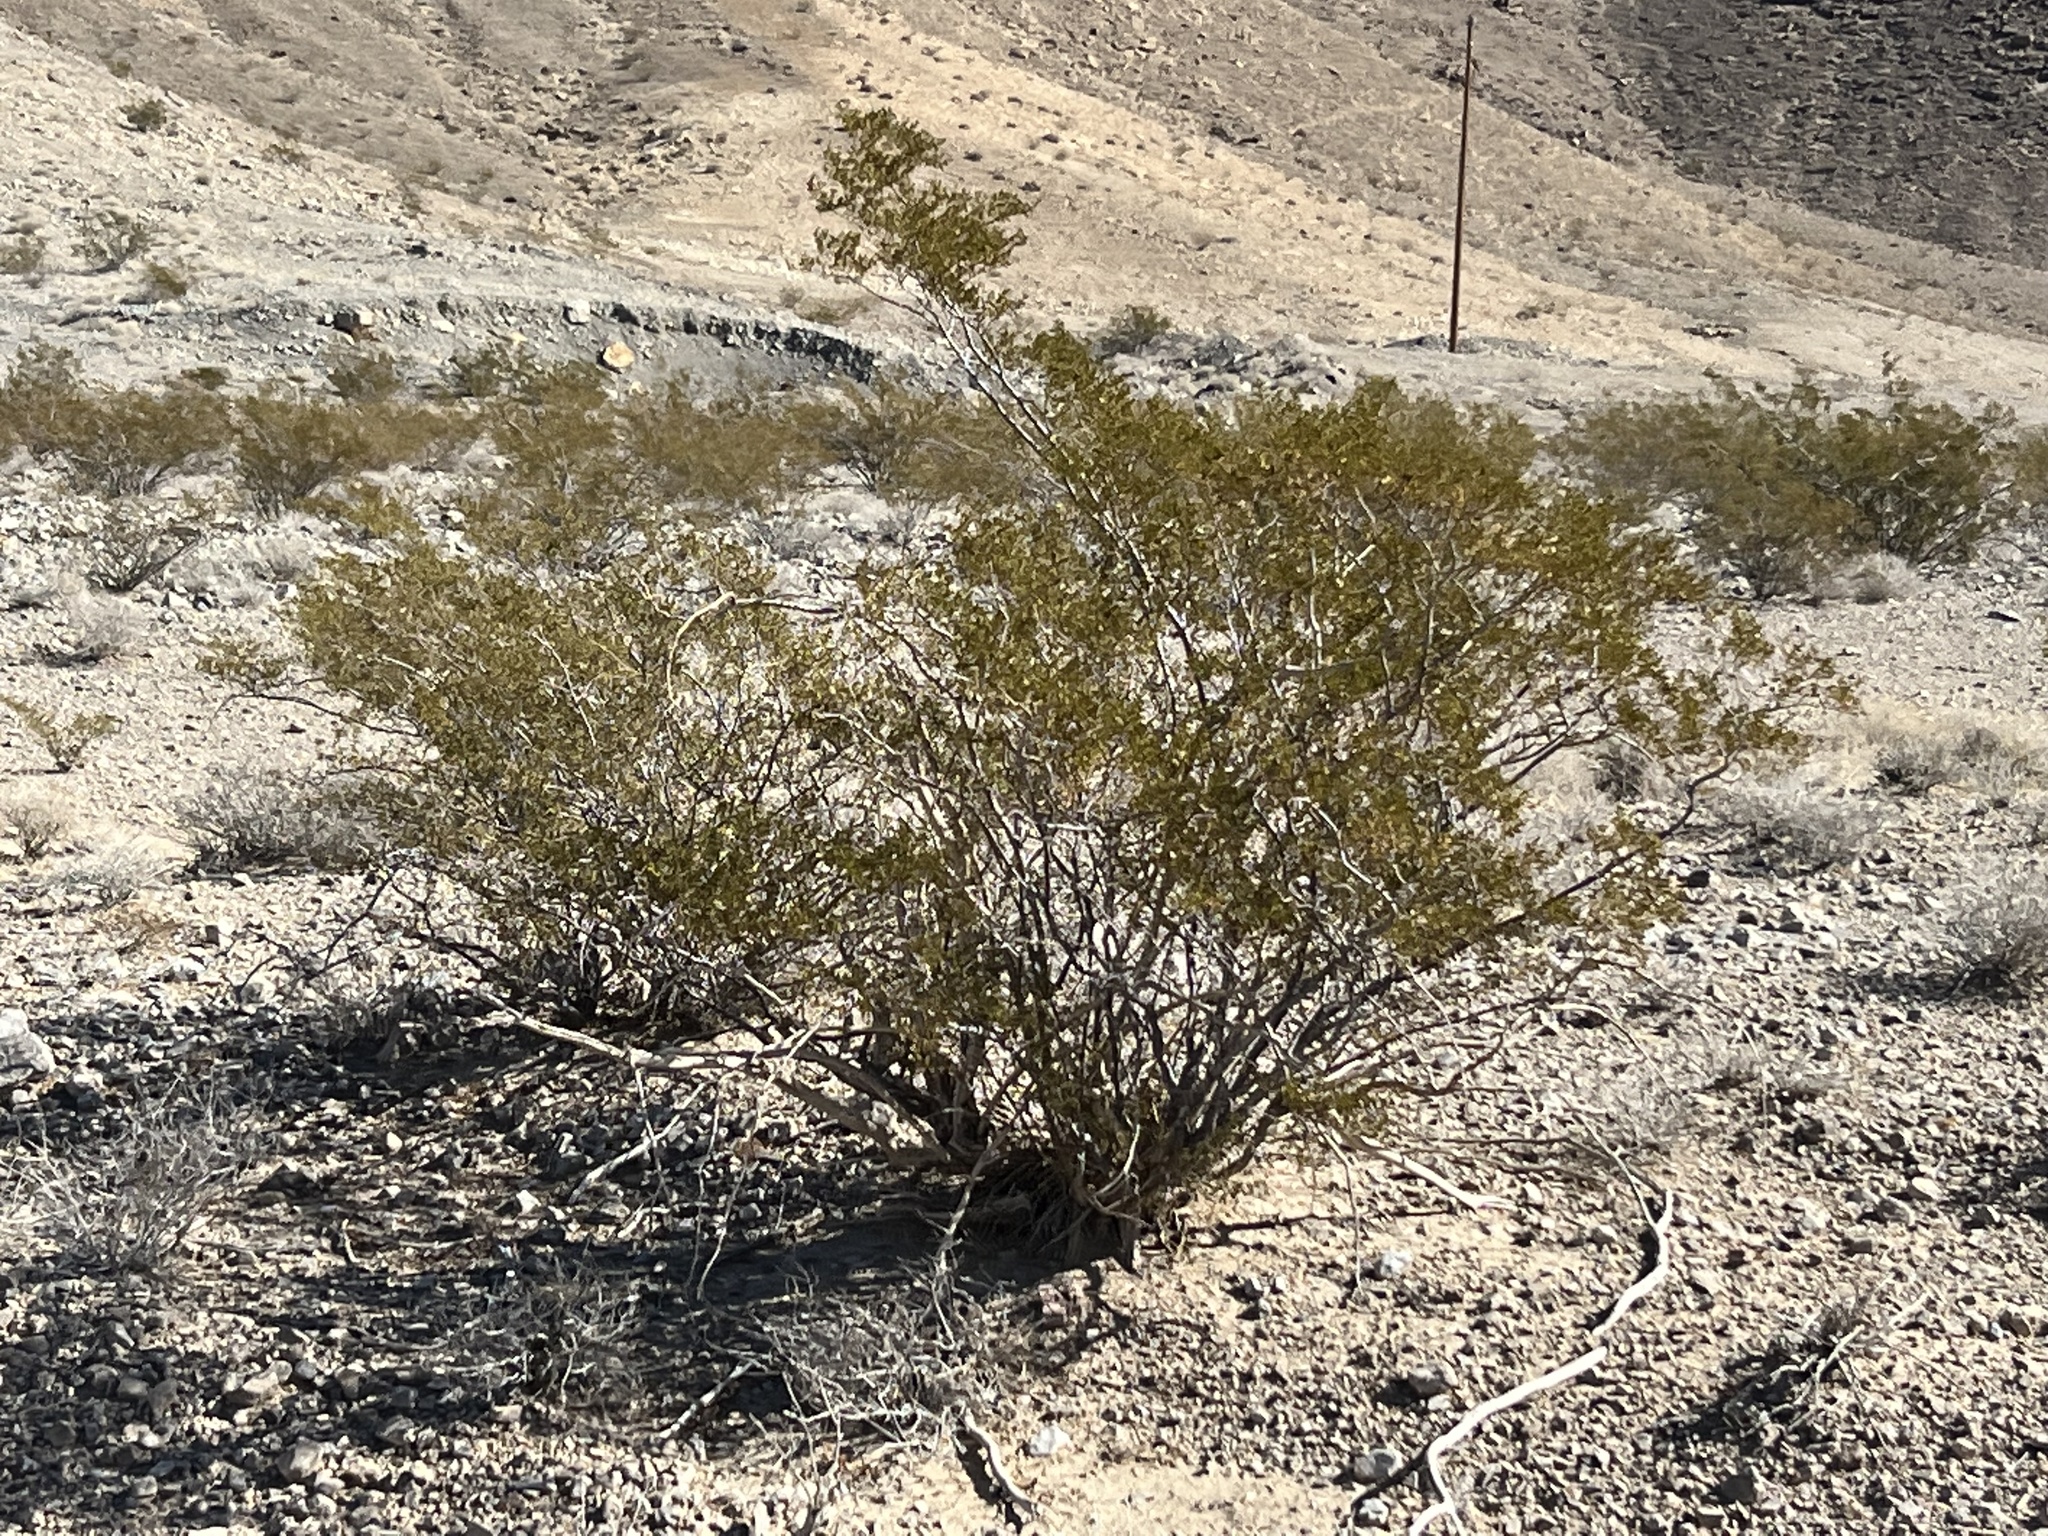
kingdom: Plantae
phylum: Tracheophyta
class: Magnoliopsida
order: Zygophyllales
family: Zygophyllaceae
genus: Larrea
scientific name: Larrea tridentata
